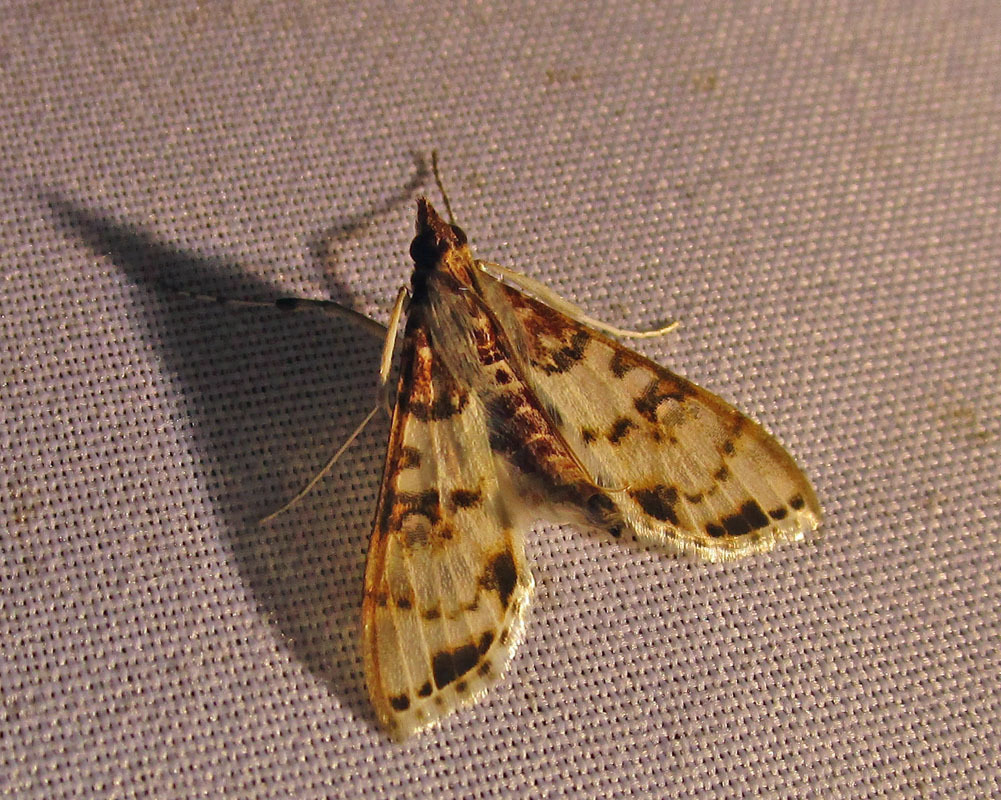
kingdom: Animalia
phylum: Arthropoda
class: Insecta
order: Lepidoptera
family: Crambidae
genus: Azochis
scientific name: Azochis rufidiscalis
